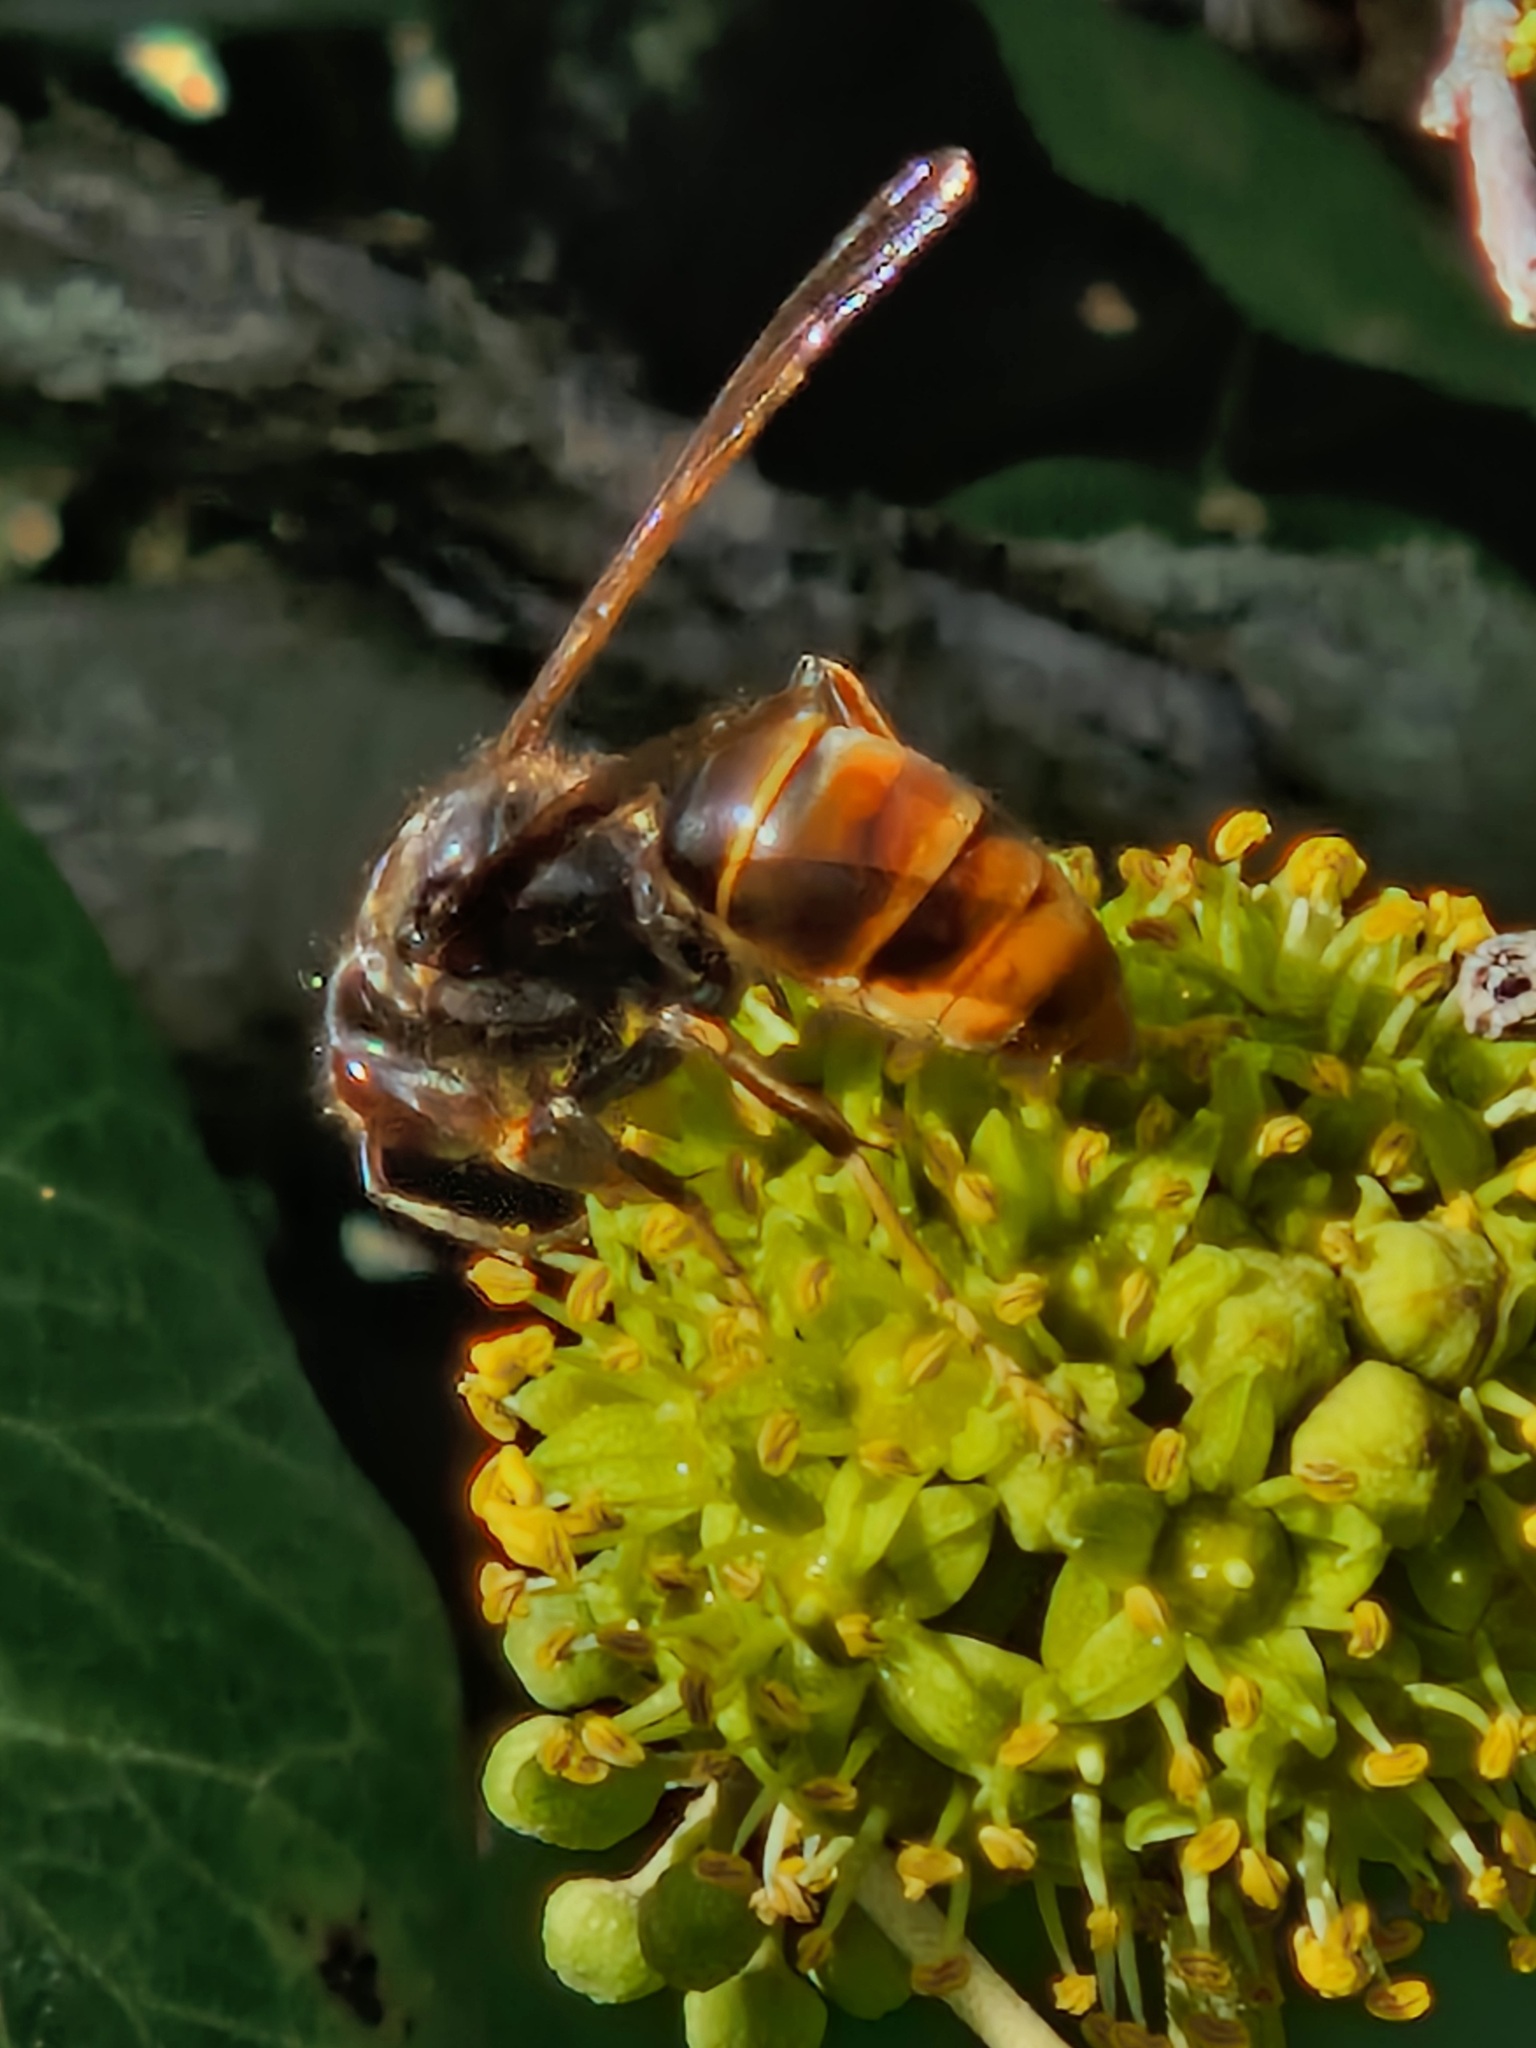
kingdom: Animalia
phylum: Arthropoda
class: Insecta
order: Hymenoptera
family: Vespidae
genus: Vespa
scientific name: Vespa velutina
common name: Asian hornet
